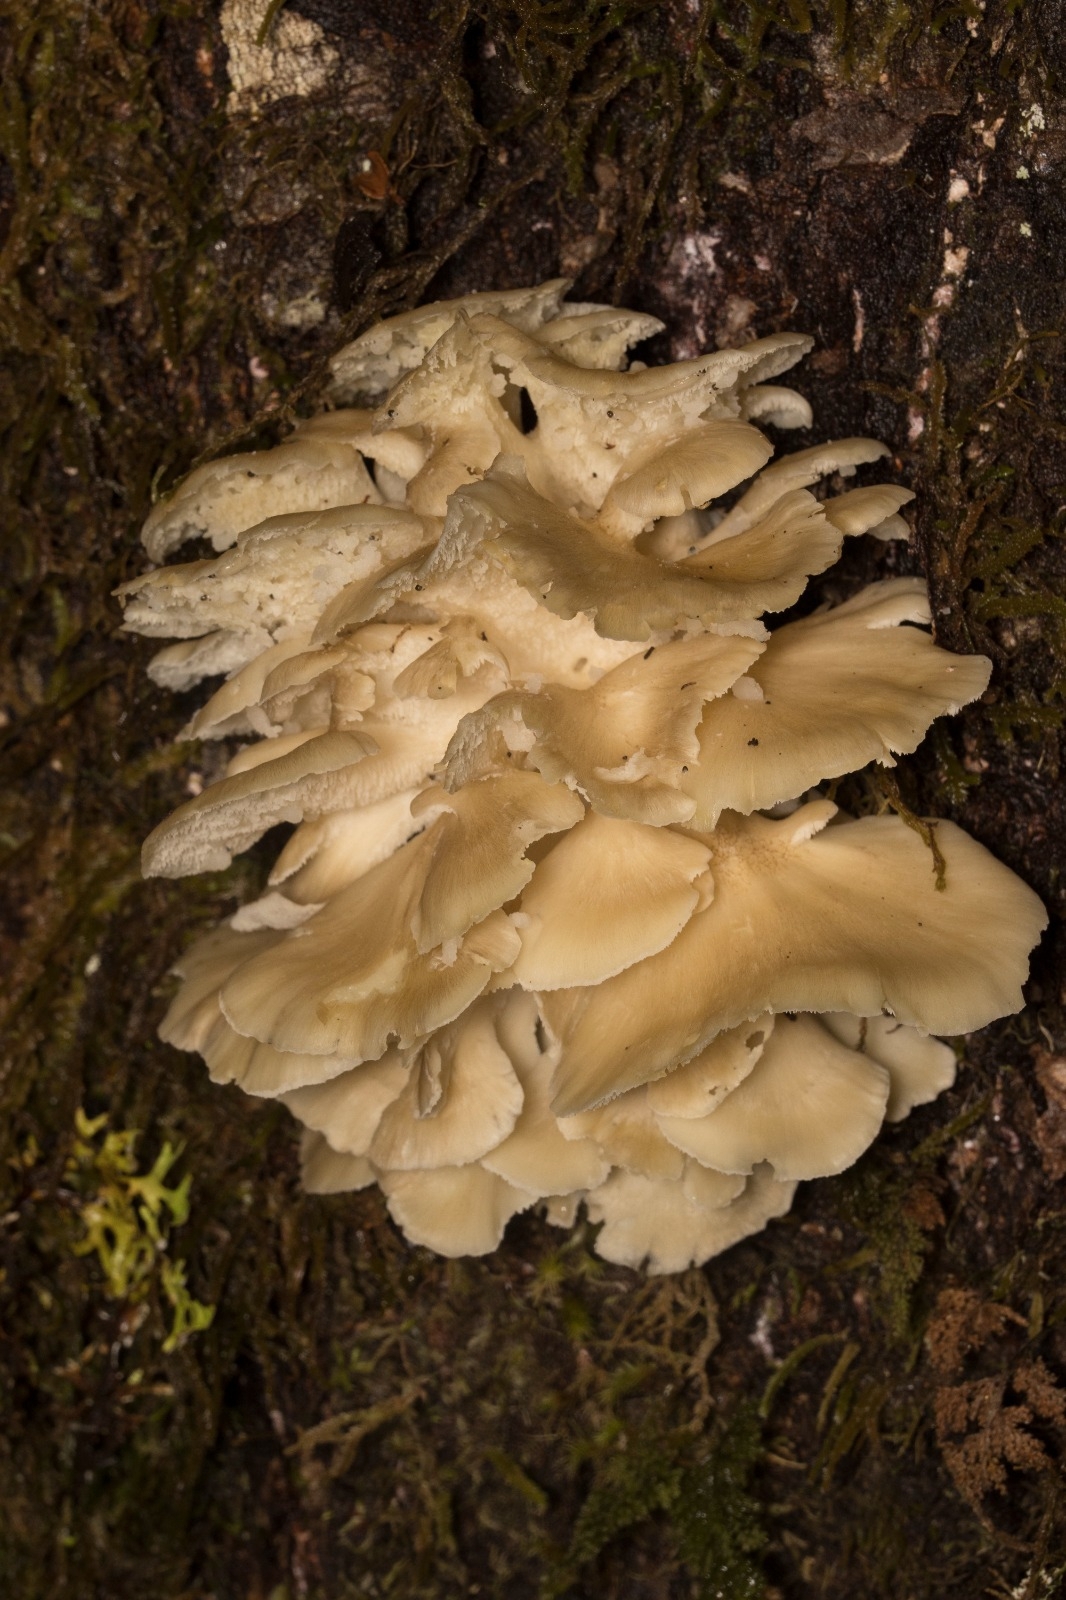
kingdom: Fungi
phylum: Basidiomycota
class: Agaricomycetes
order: Polyporales
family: Grifolaceae
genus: Grifola
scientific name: Grifola gargal
